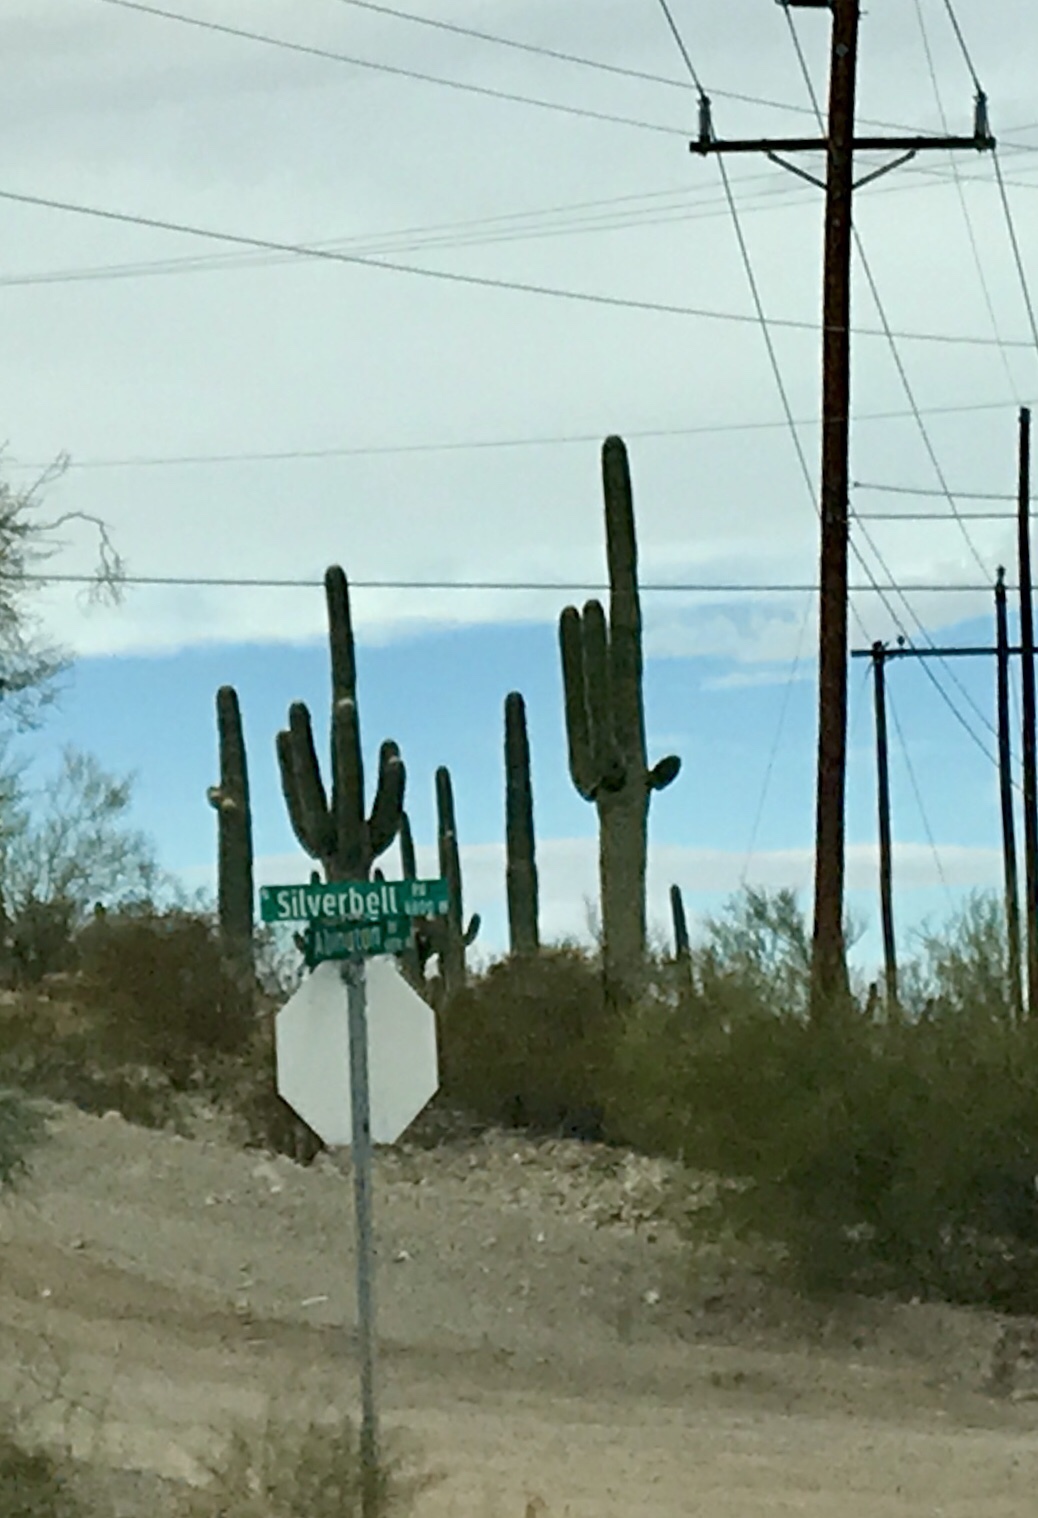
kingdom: Plantae
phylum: Tracheophyta
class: Magnoliopsida
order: Caryophyllales
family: Cactaceae
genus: Carnegiea
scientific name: Carnegiea gigantea
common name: Saguaro
